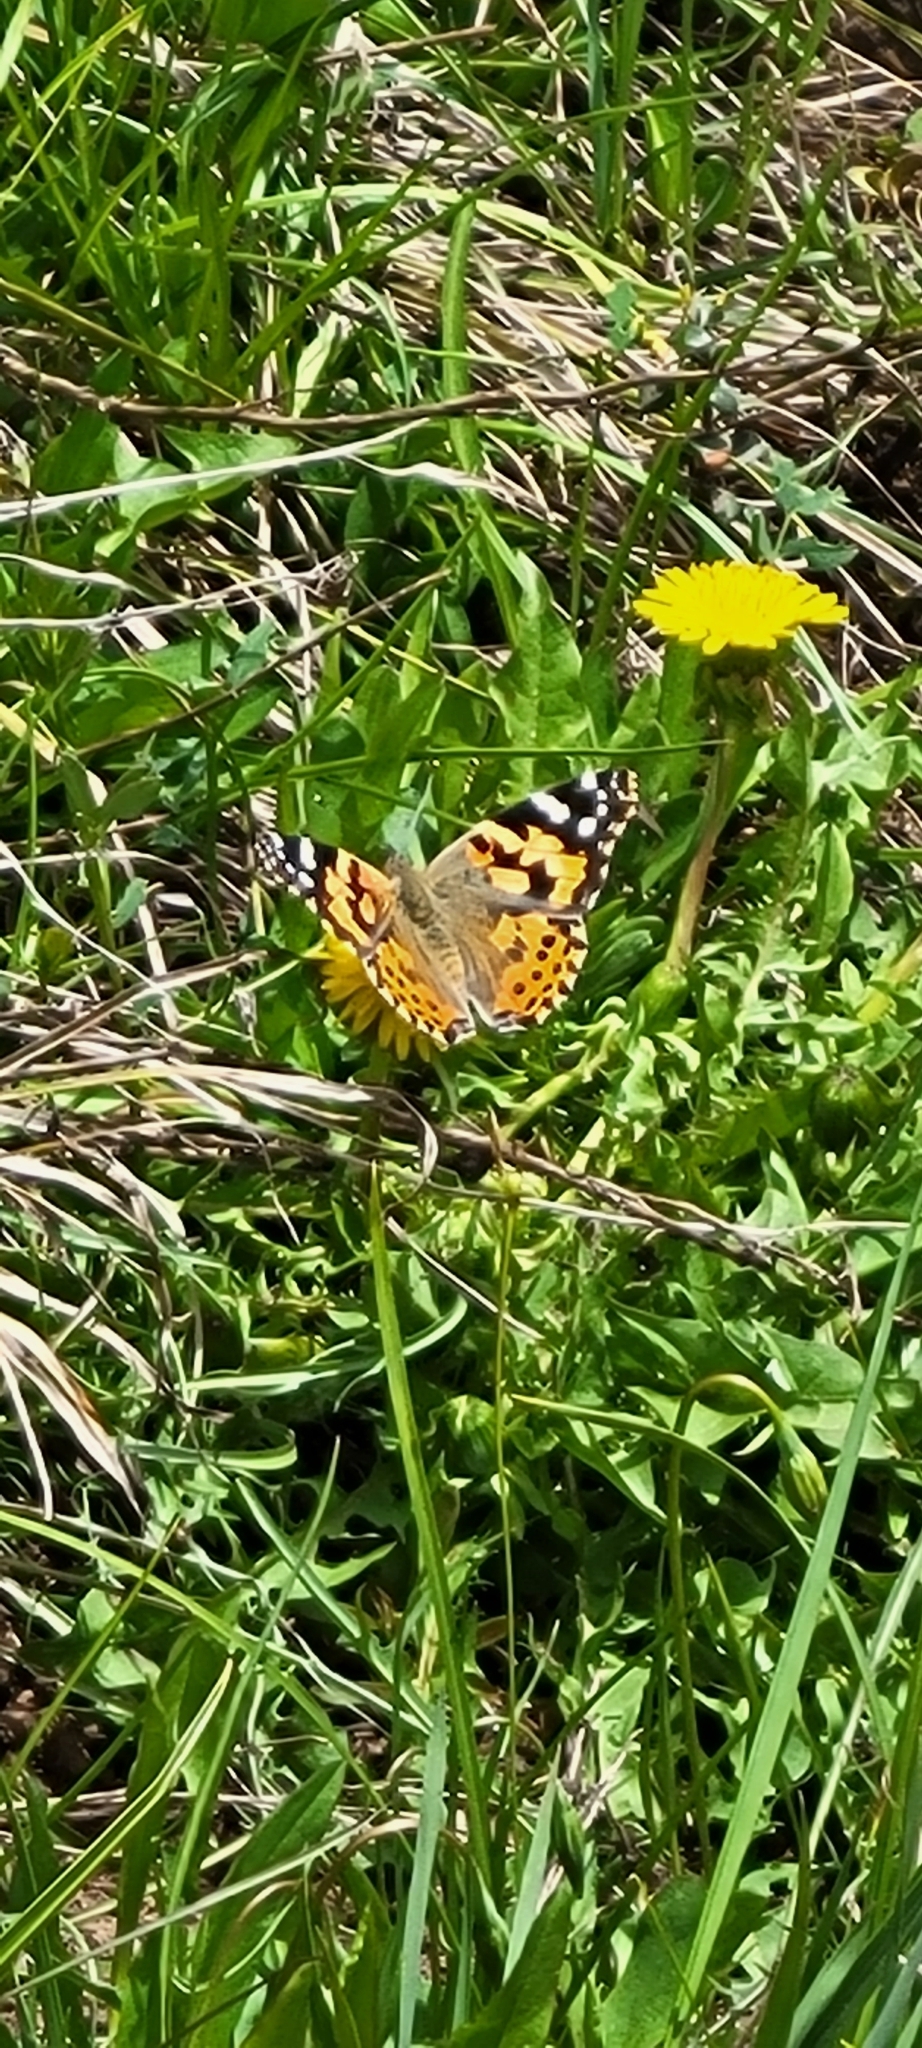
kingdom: Animalia
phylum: Arthropoda
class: Insecta
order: Lepidoptera
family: Nymphalidae
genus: Vanessa
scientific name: Vanessa cardui
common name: Painted lady
